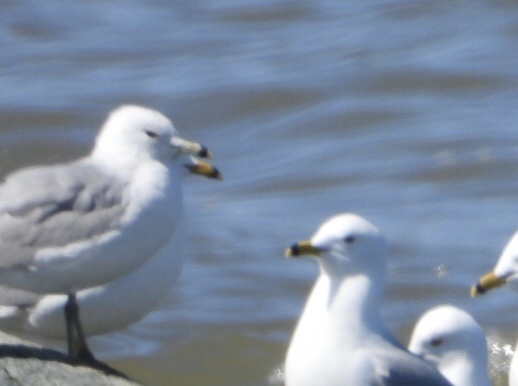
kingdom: Animalia
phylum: Chordata
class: Aves
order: Charadriiformes
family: Laridae
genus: Larus
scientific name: Larus delawarensis
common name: Ring-billed gull
